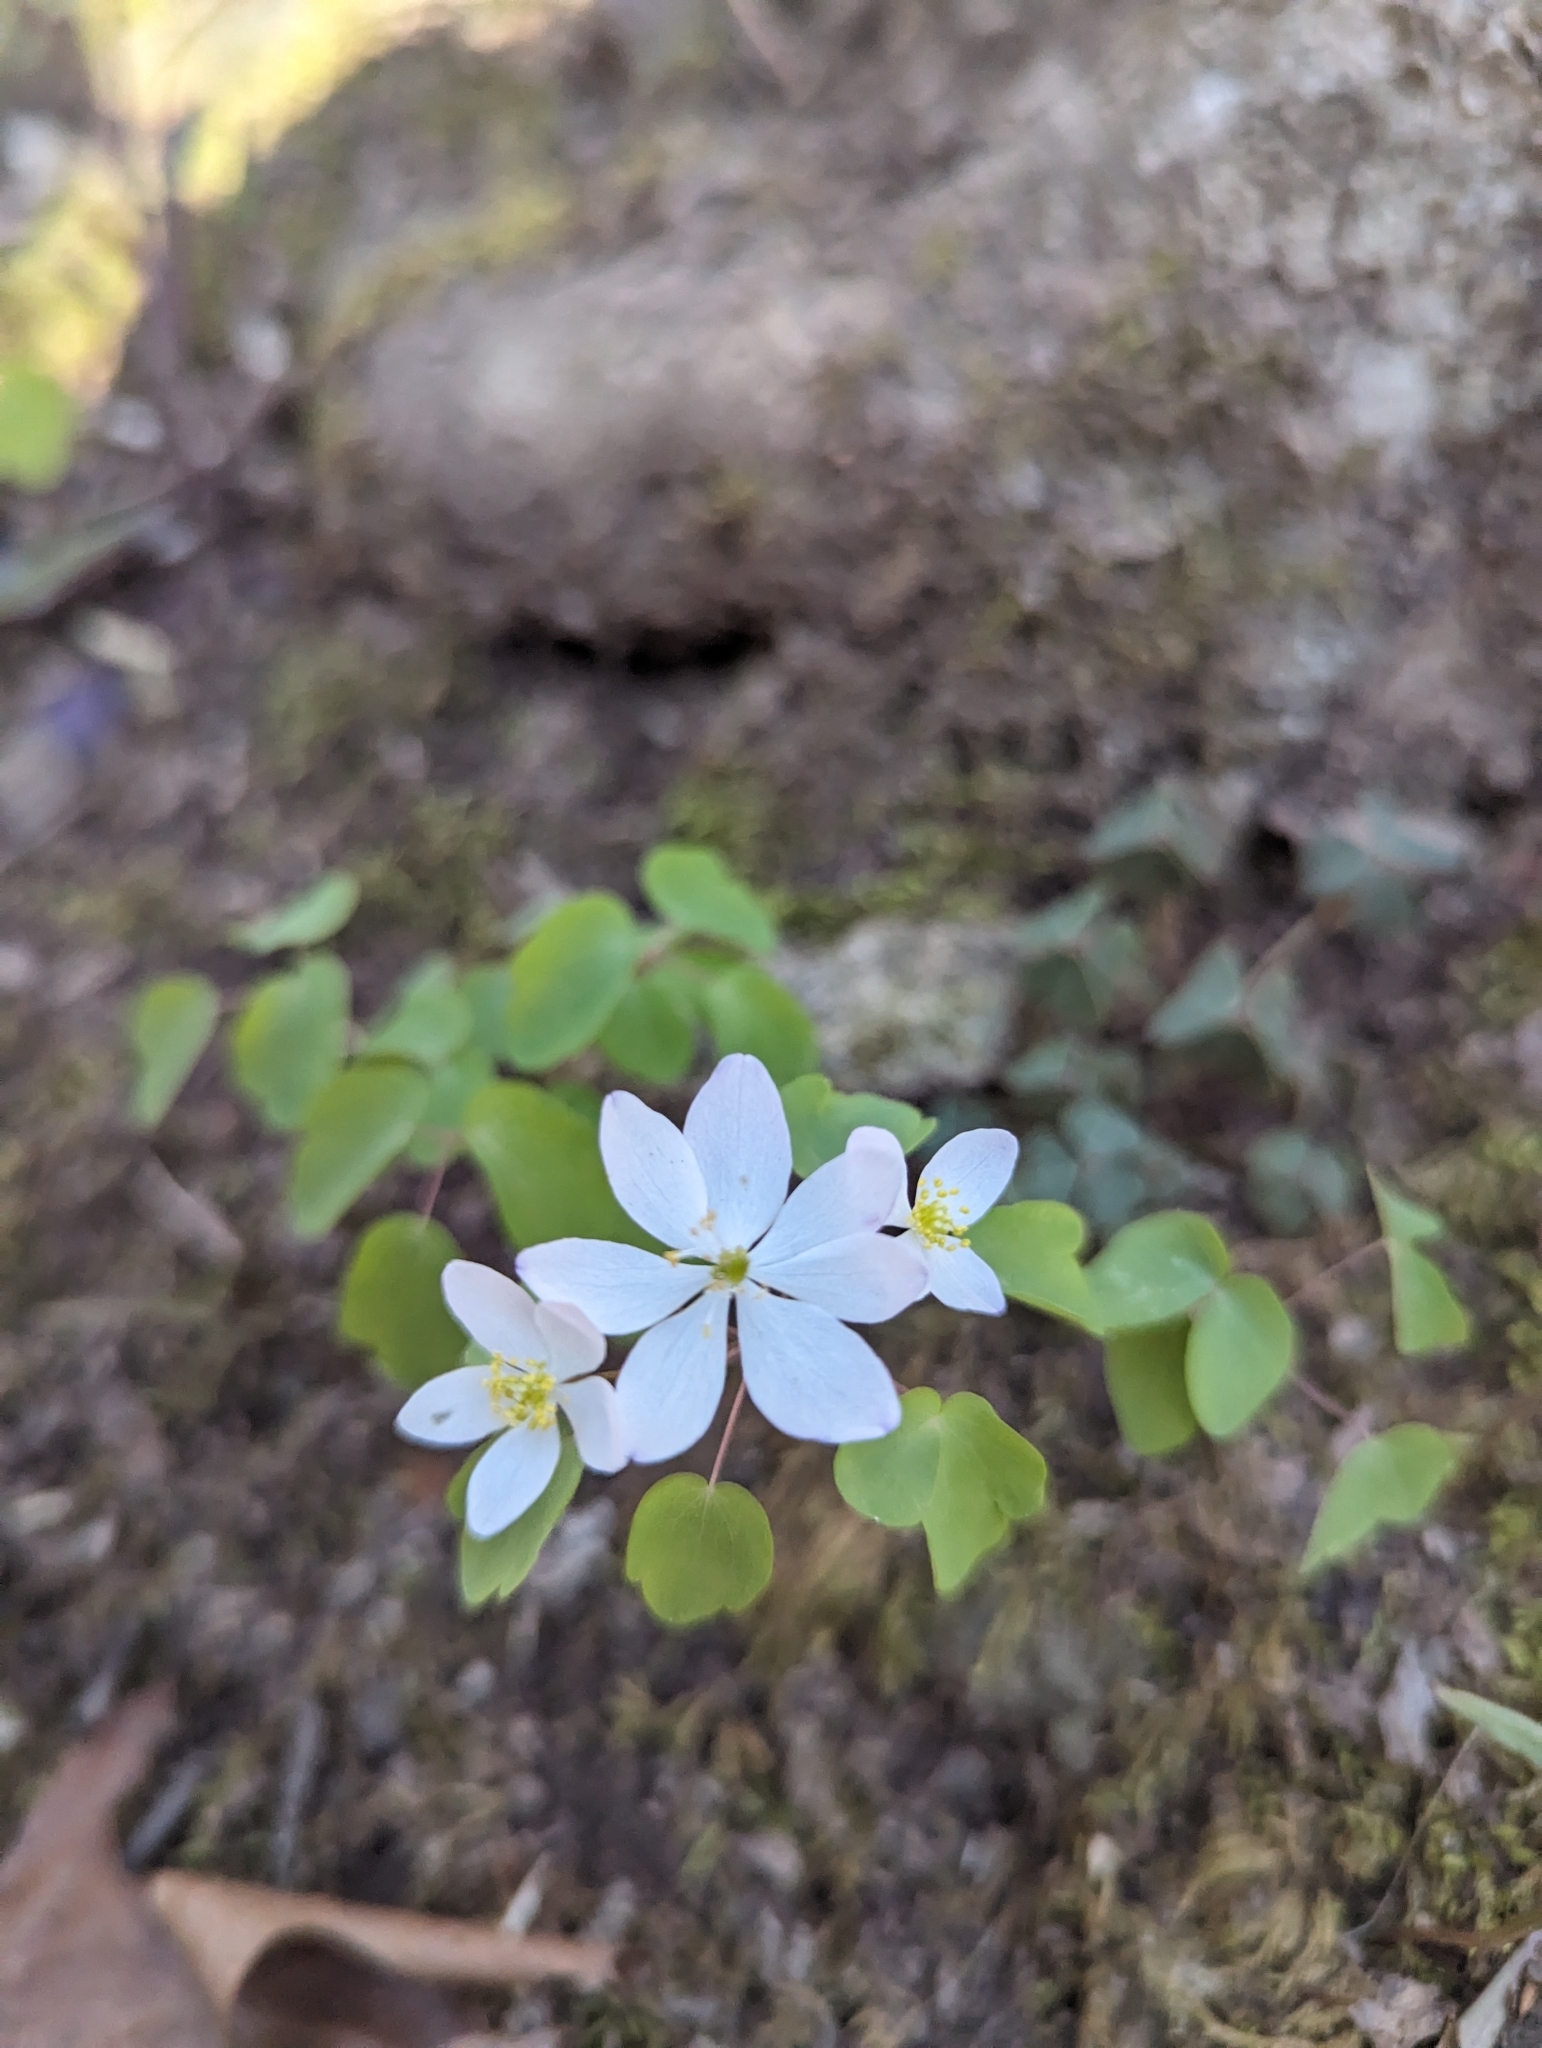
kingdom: Plantae
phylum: Tracheophyta
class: Magnoliopsida
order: Ranunculales
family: Ranunculaceae
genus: Thalictrum
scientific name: Thalictrum thalictroides
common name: Rue-anemone
